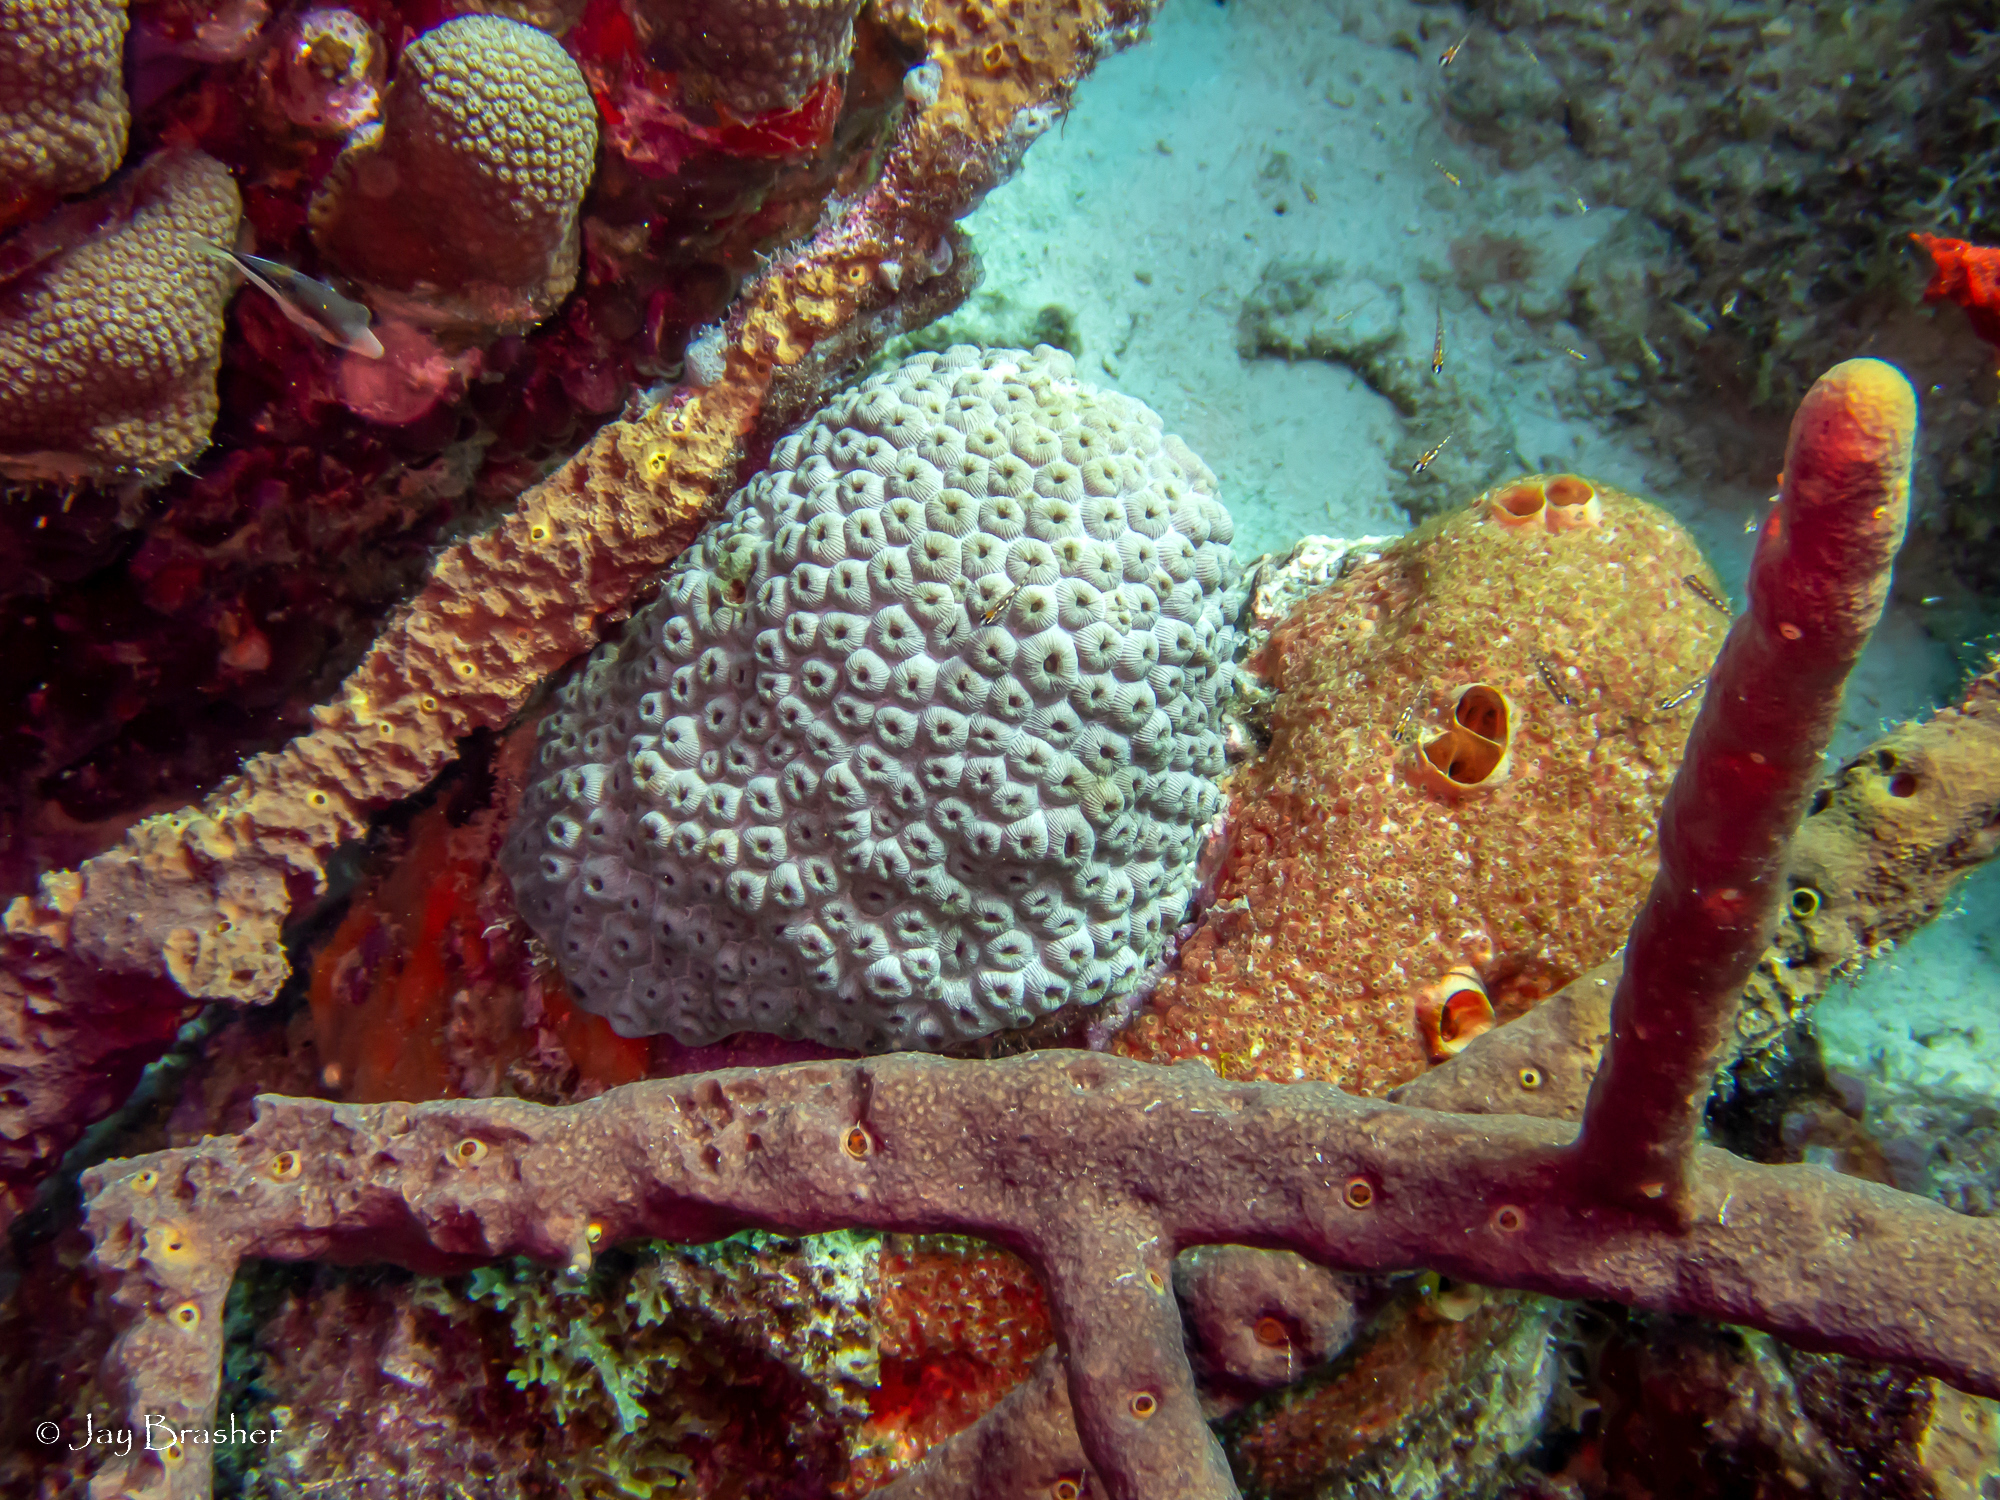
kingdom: Animalia
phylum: Chordata
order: Tetraodontiformes
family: Tetraodontidae
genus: Canthigaster
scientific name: Canthigaster rostrata
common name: Caribbean sharpnose-puffer
